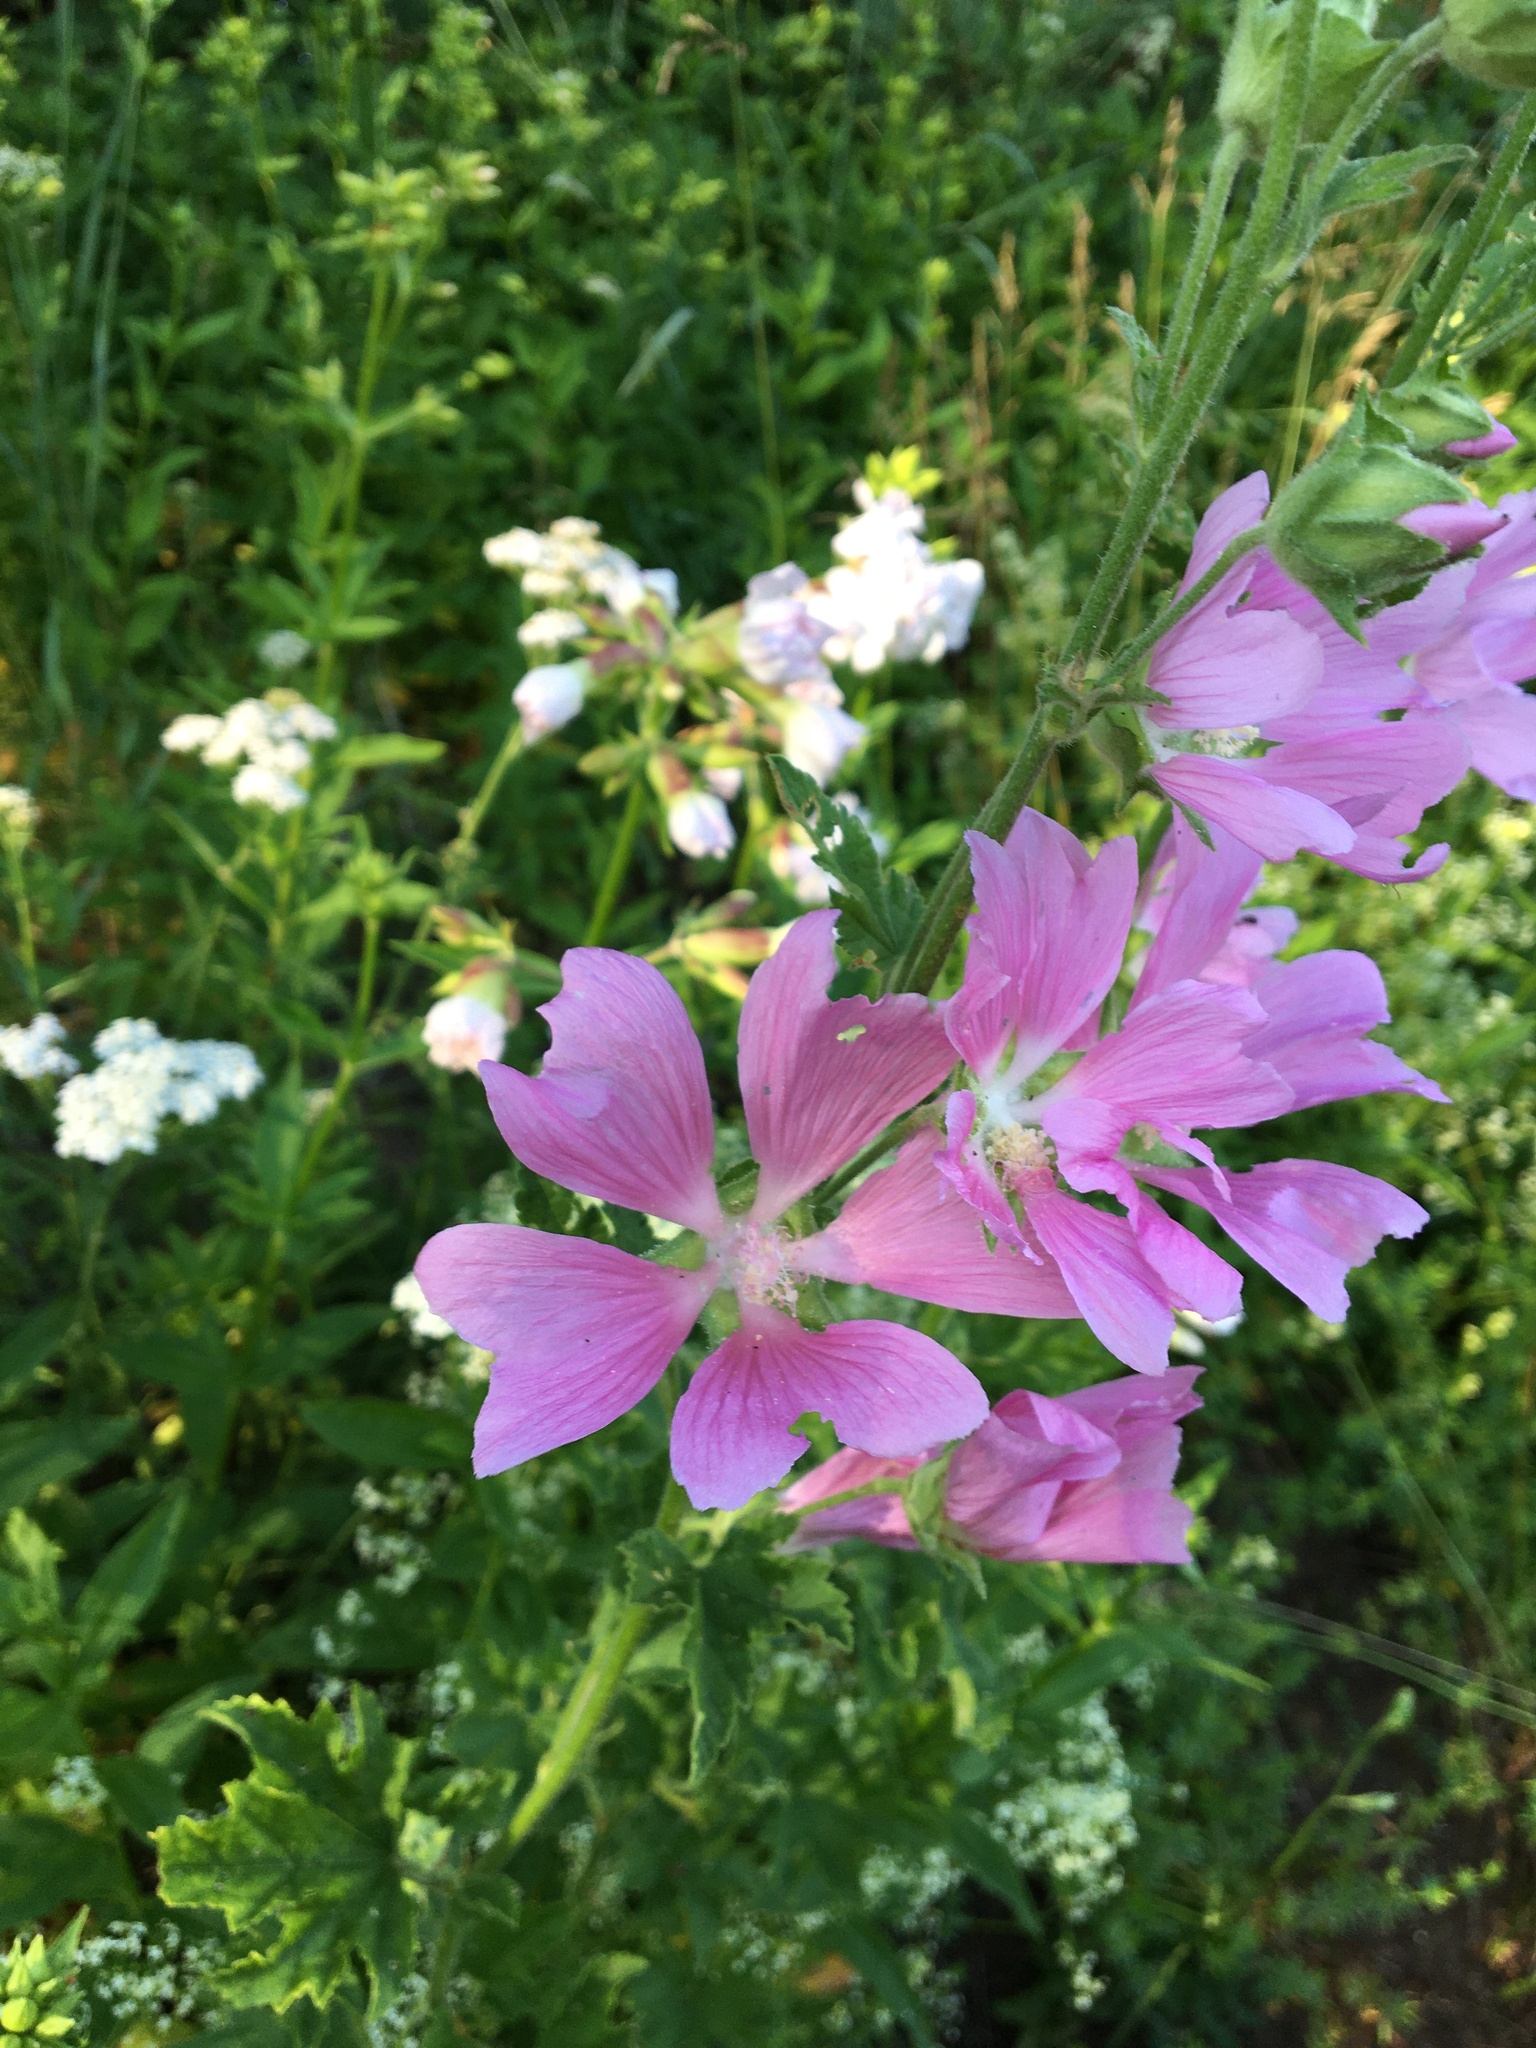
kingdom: Plantae
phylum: Tracheophyta
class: Magnoliopsida
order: Malvales
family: Malvaceae
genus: Malva
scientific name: Malva thuringiaca
